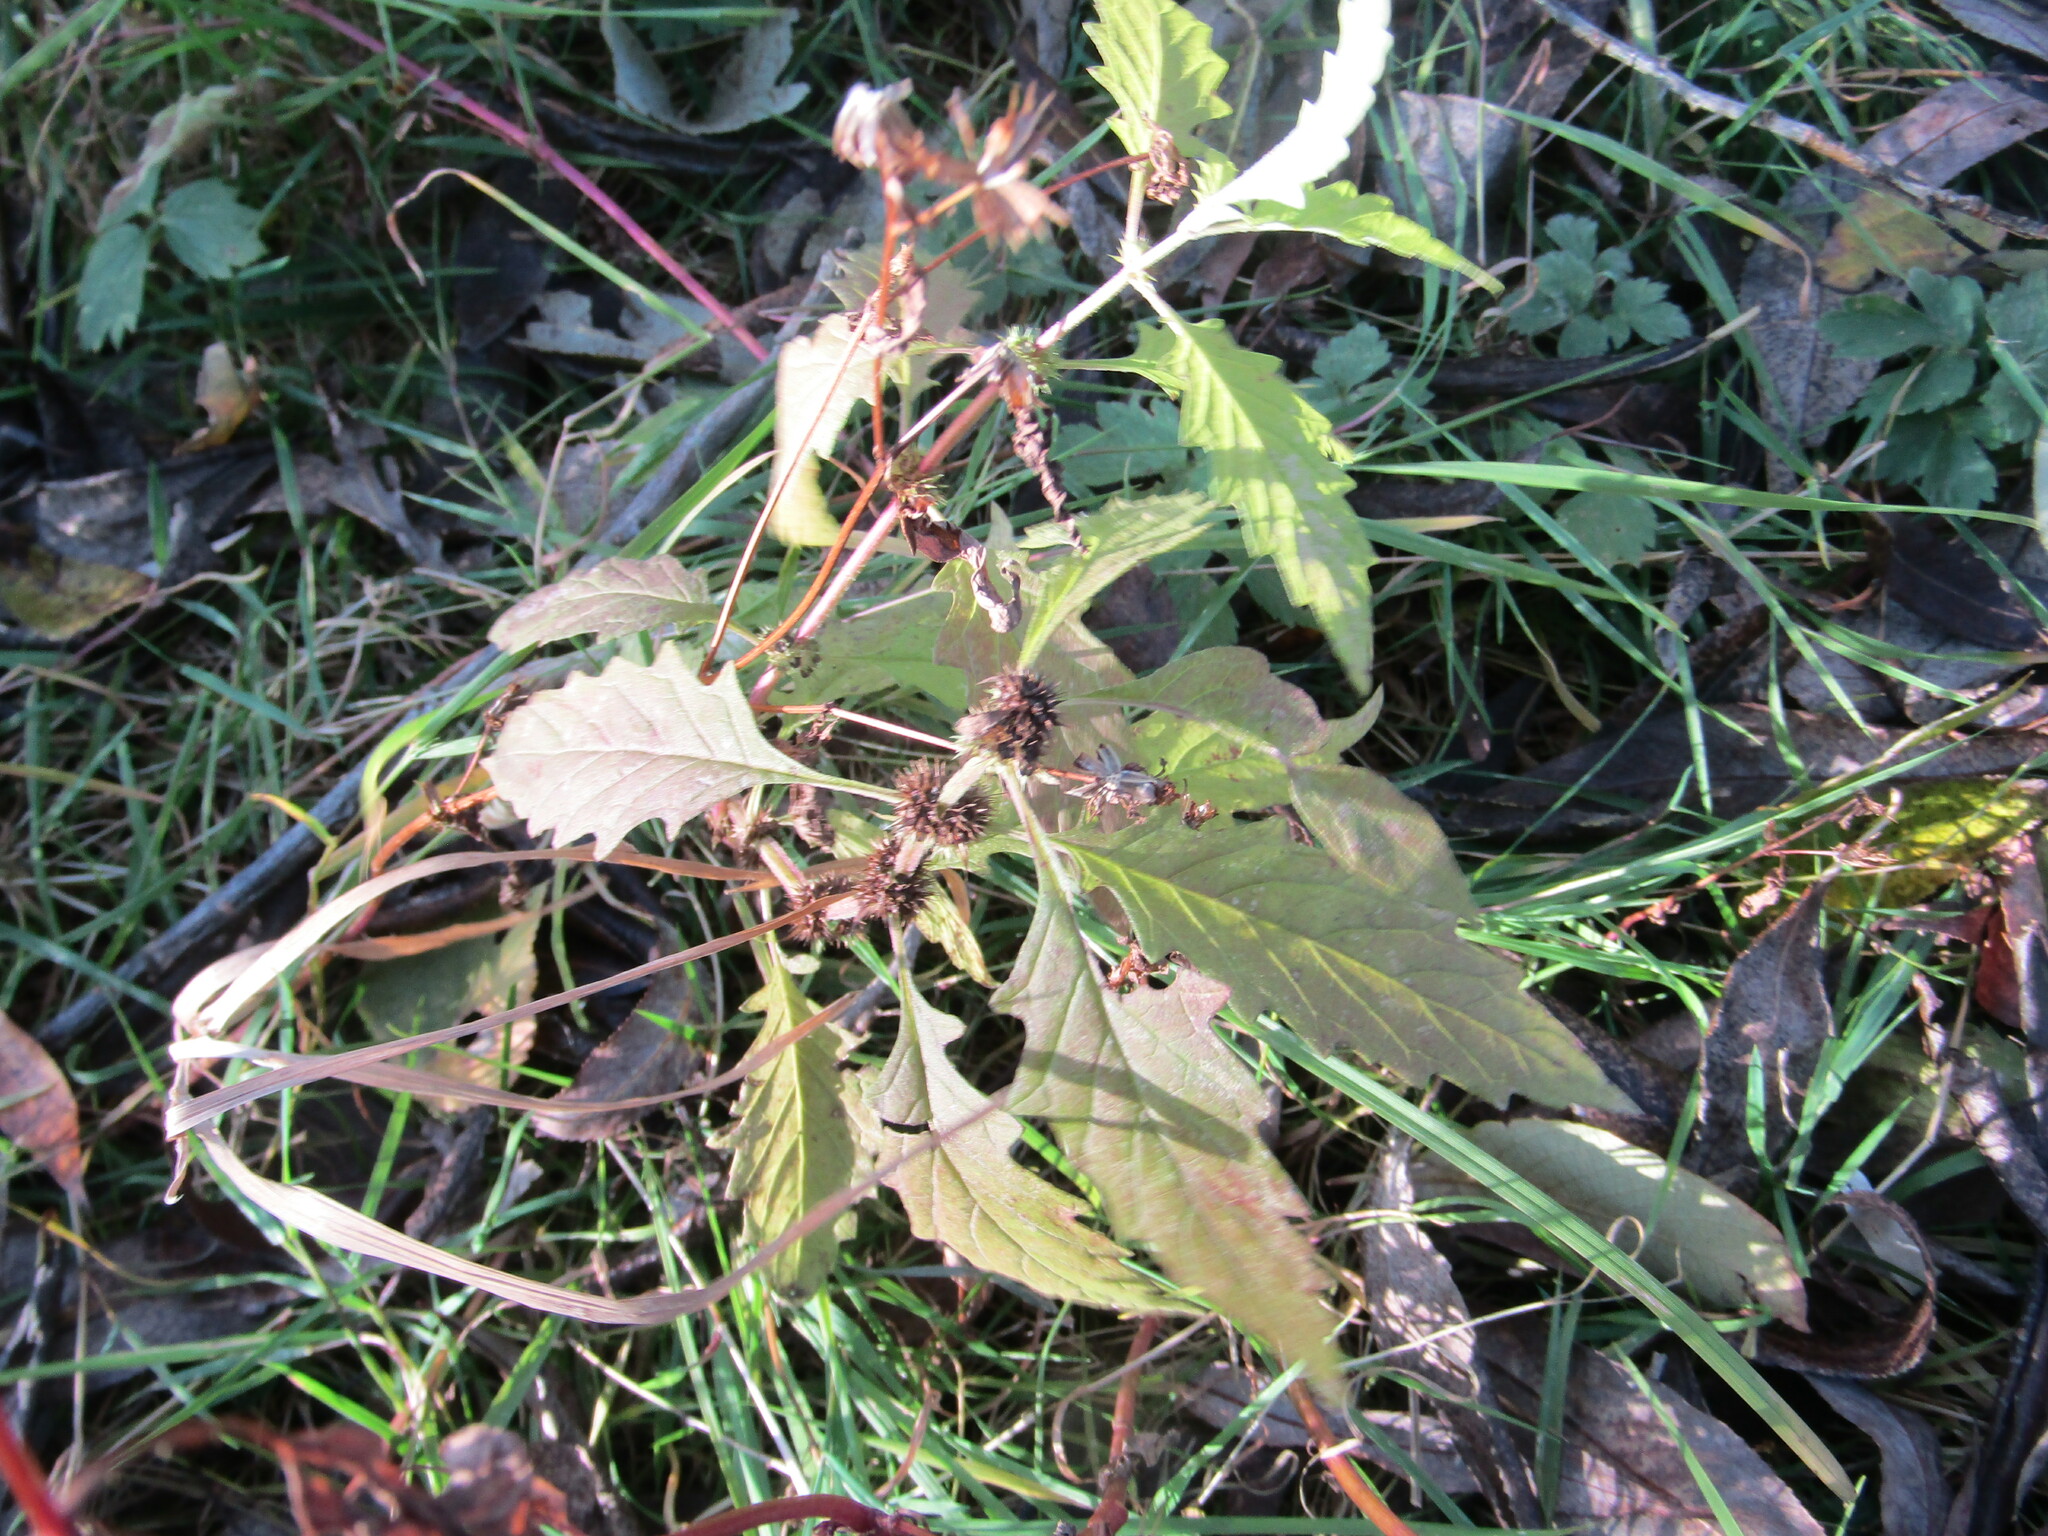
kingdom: Plantae
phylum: Tracheophyta
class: Magnoliopsida
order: Lamiales
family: Lamiaceae
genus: Lycopus
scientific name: Lycopus europaeus
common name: European bugleweed
